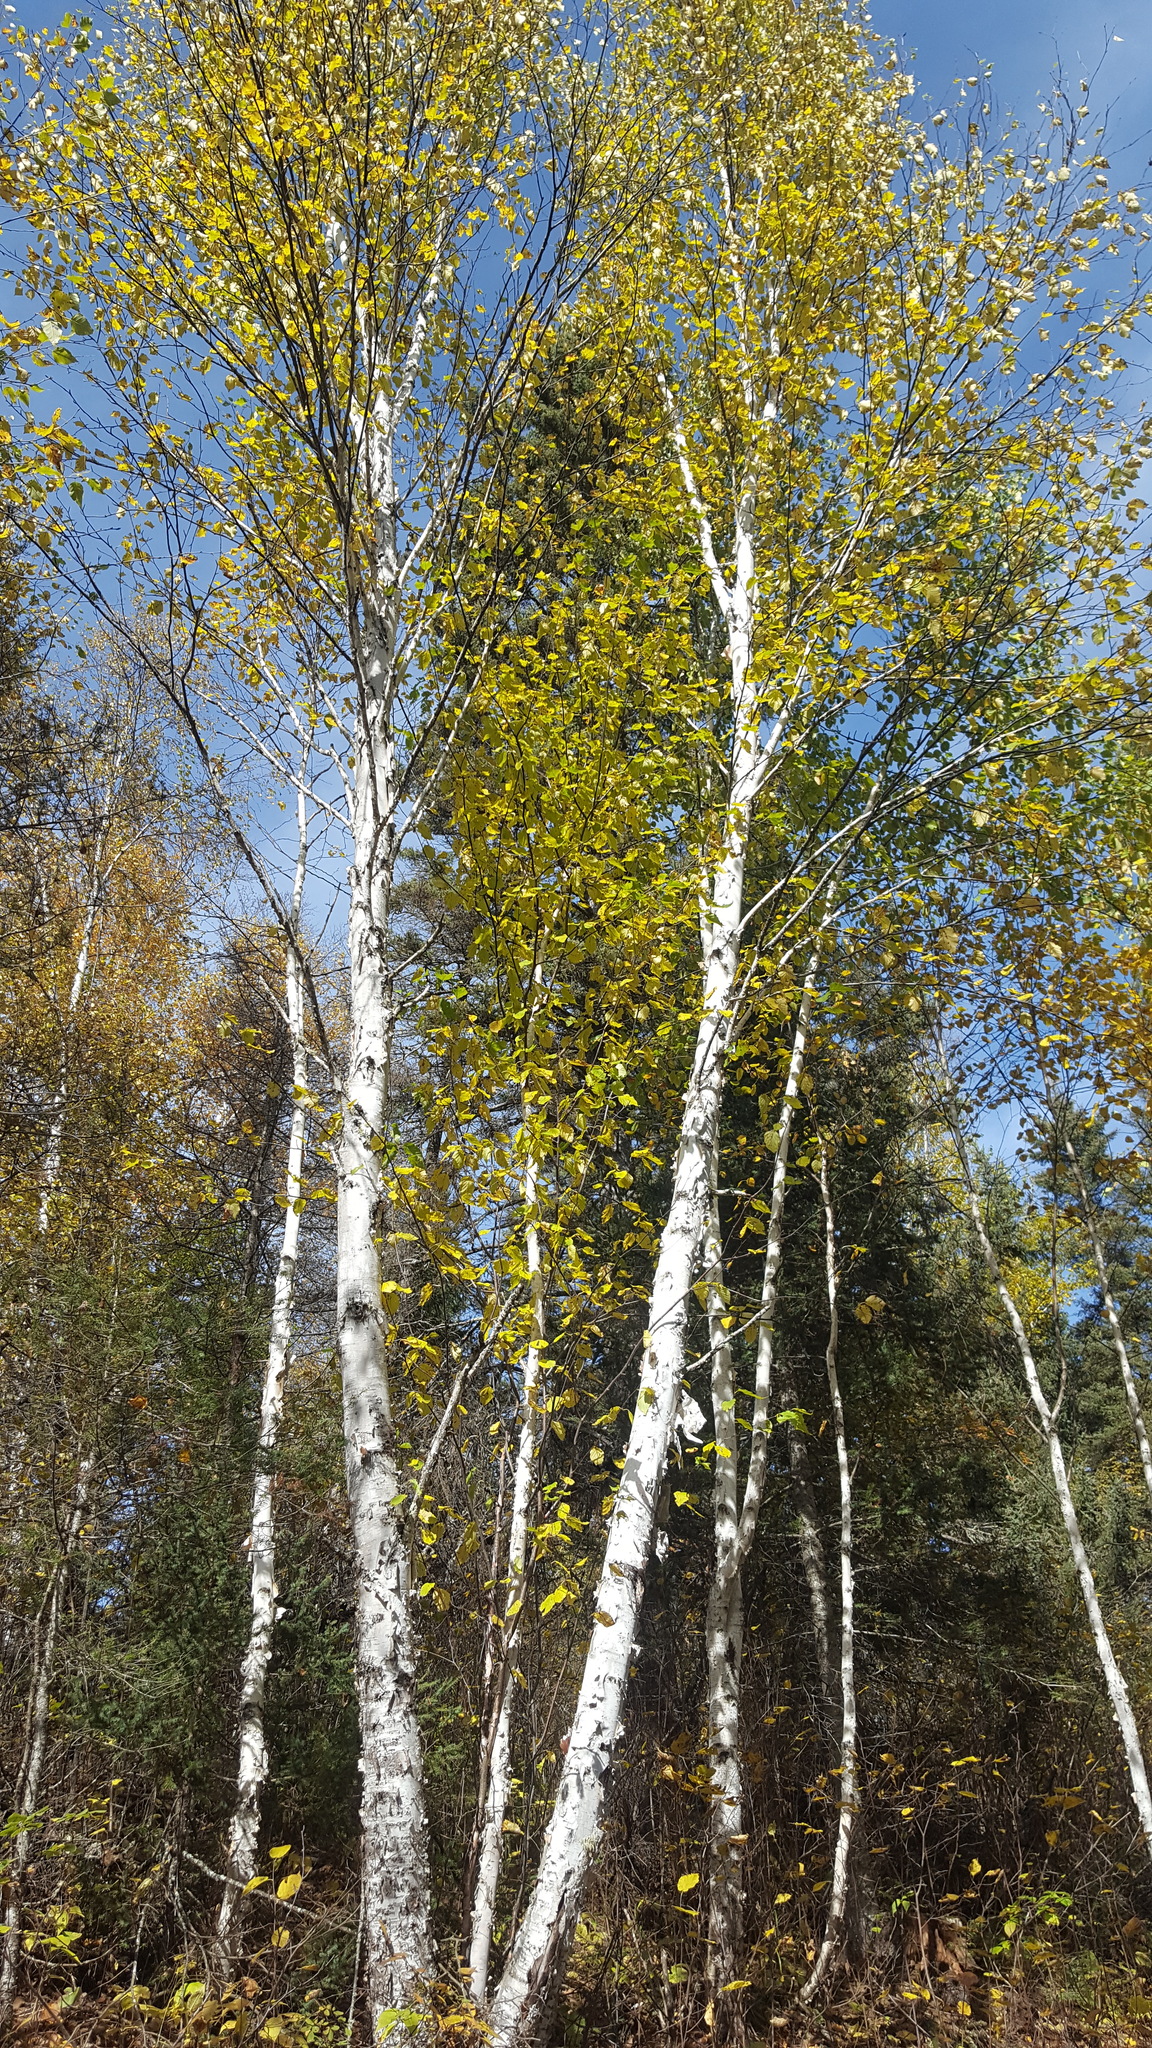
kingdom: Plantae
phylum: Tracheophyta
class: Magnoliopsida
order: Fagales
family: Betulaceae
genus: Betula
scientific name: Betula papyrifera
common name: Paper birch
